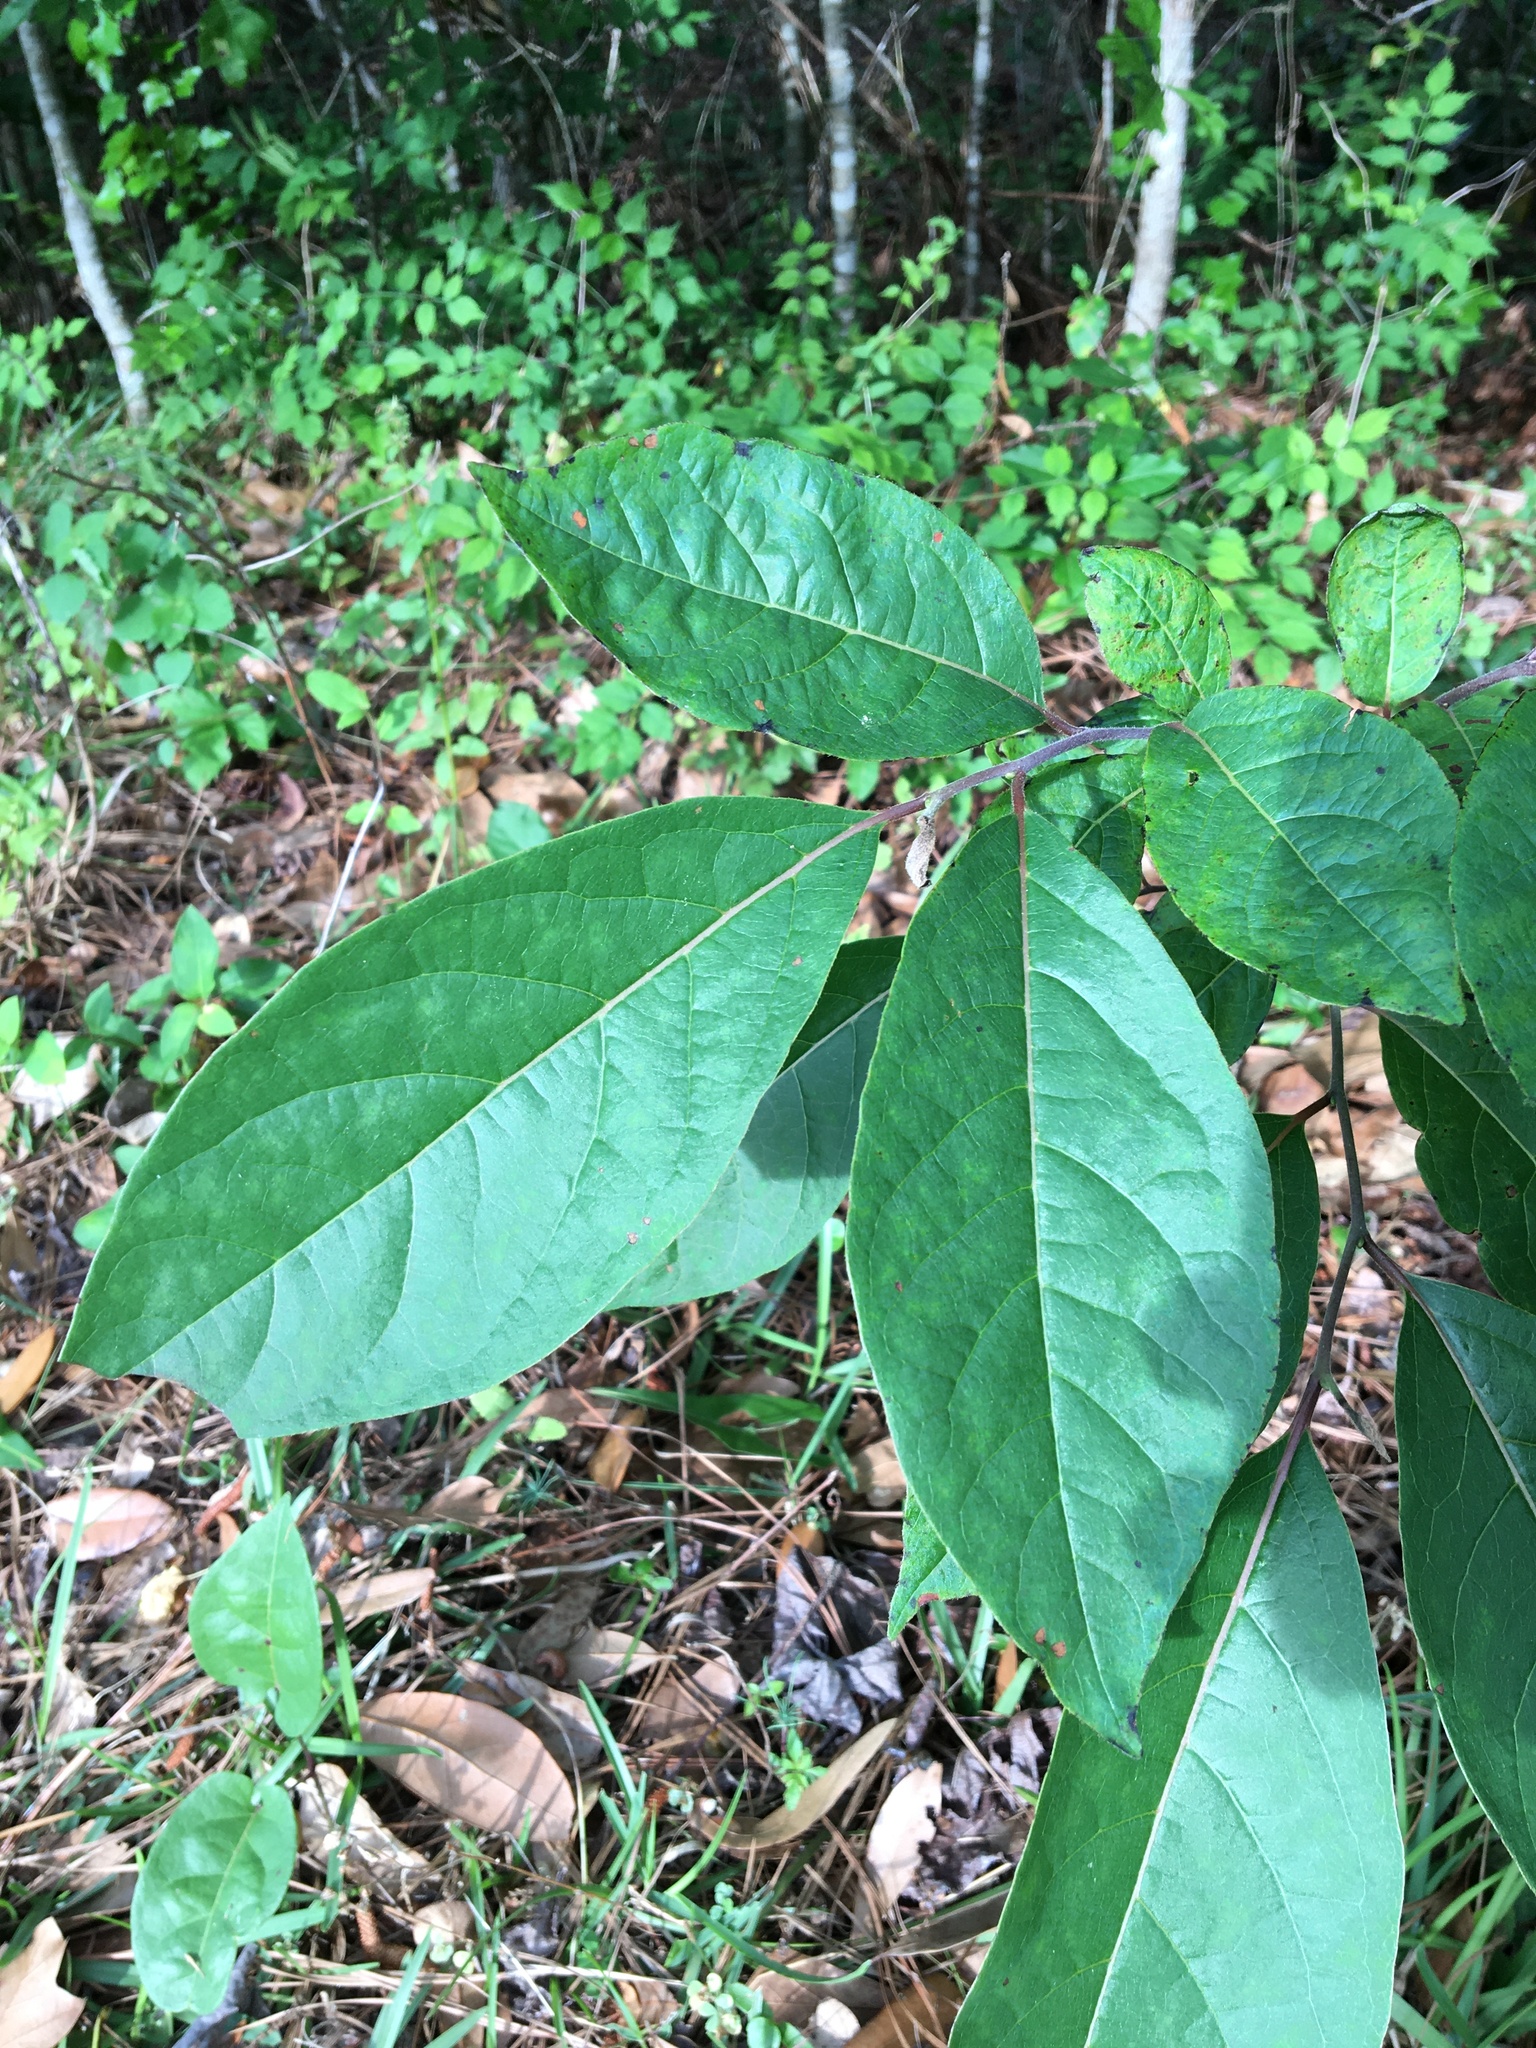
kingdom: Plantae
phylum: Tracheophyta
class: Magnoliopsida
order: Ericales
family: Ebenaceae
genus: Diospyros
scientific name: Diospyros virginiana
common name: Persimmon
